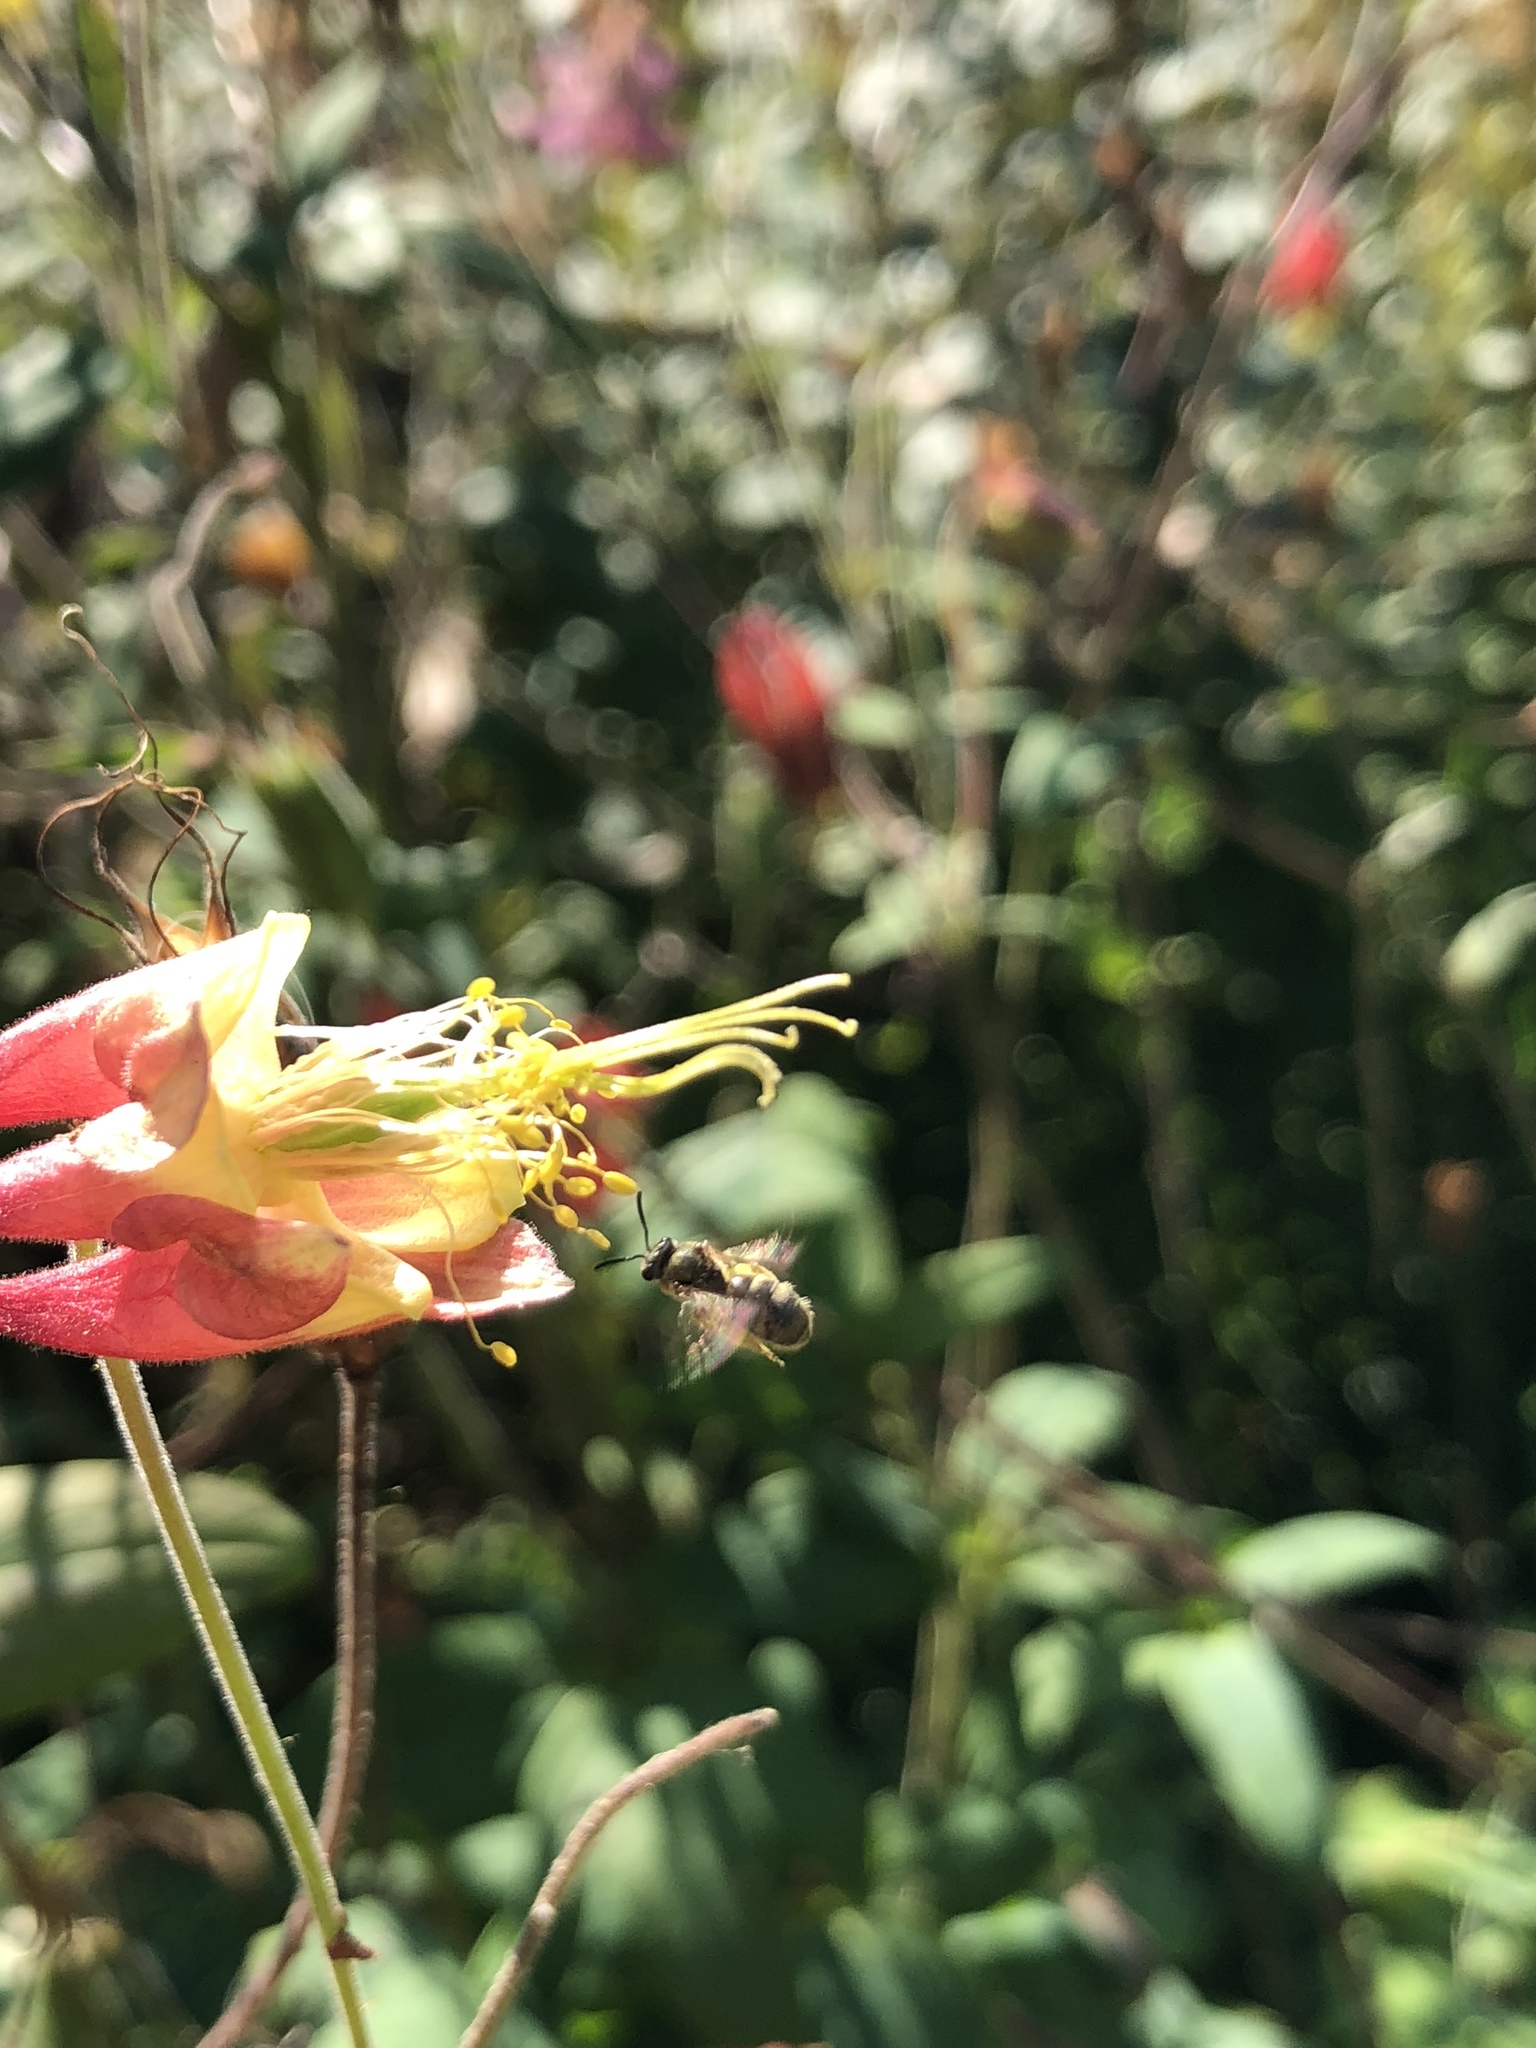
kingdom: Plantae
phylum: Tracheophyta
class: Magnoliopsida
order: Ranunculales
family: Ranunculaceae
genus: Aquilegia
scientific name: Aquilegia canadensis
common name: American columbine
